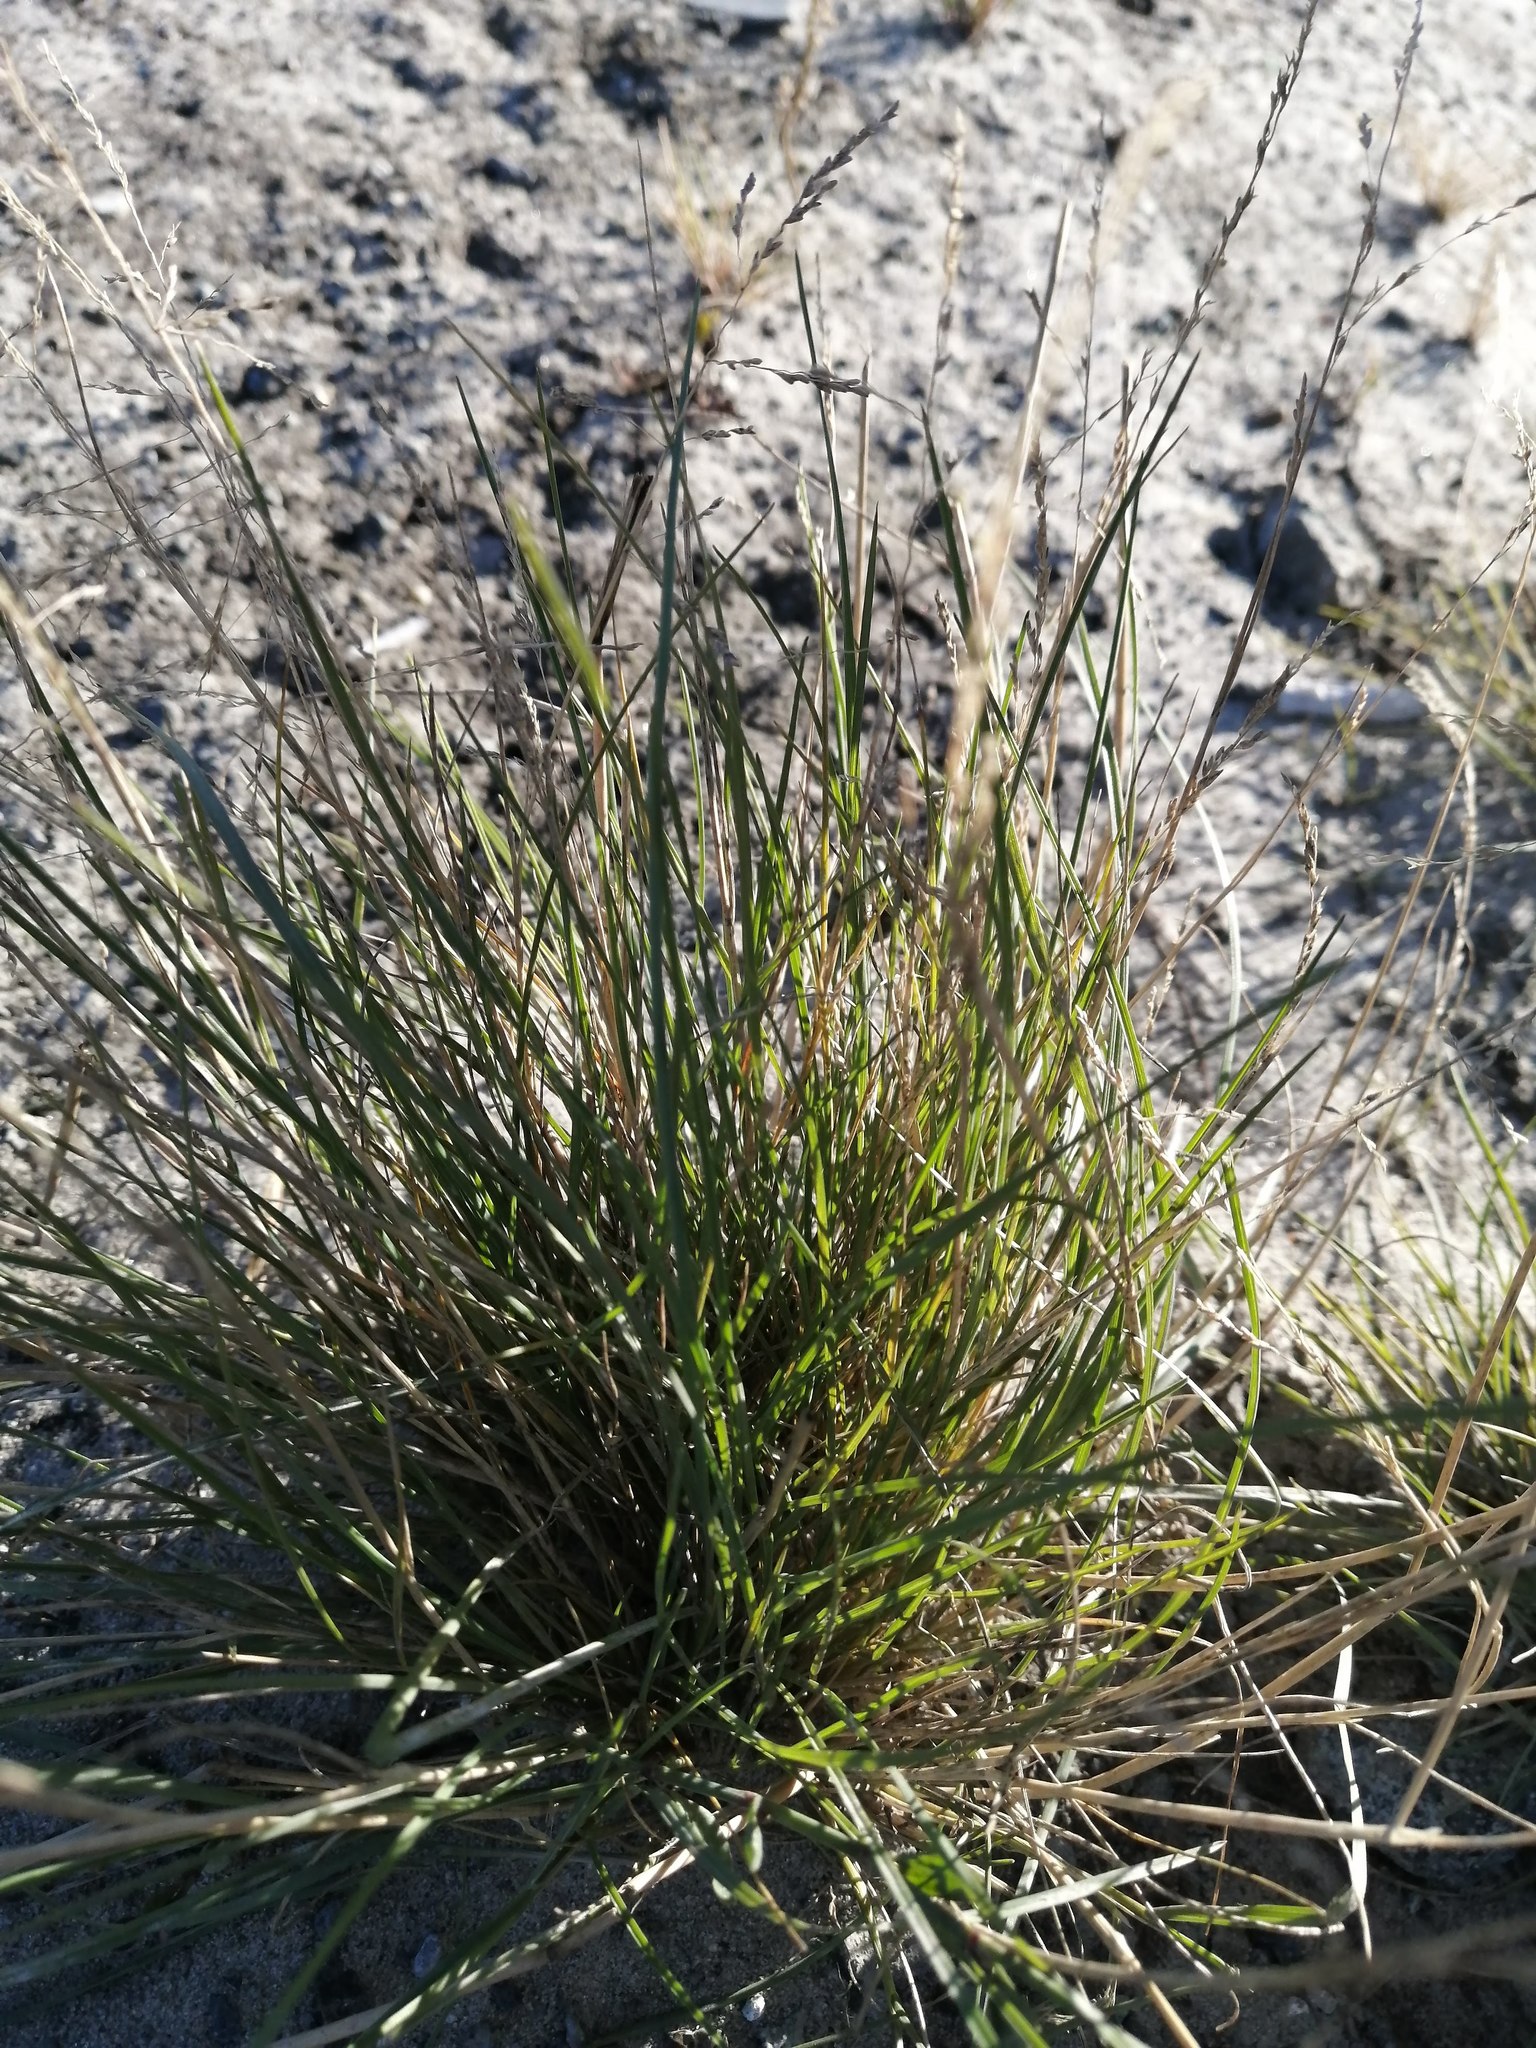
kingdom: Plantae
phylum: Tracheophyta
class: Liliopsida
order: Poales
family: Poaceae
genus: Puccinellia
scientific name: Puccinellia hauptiana
